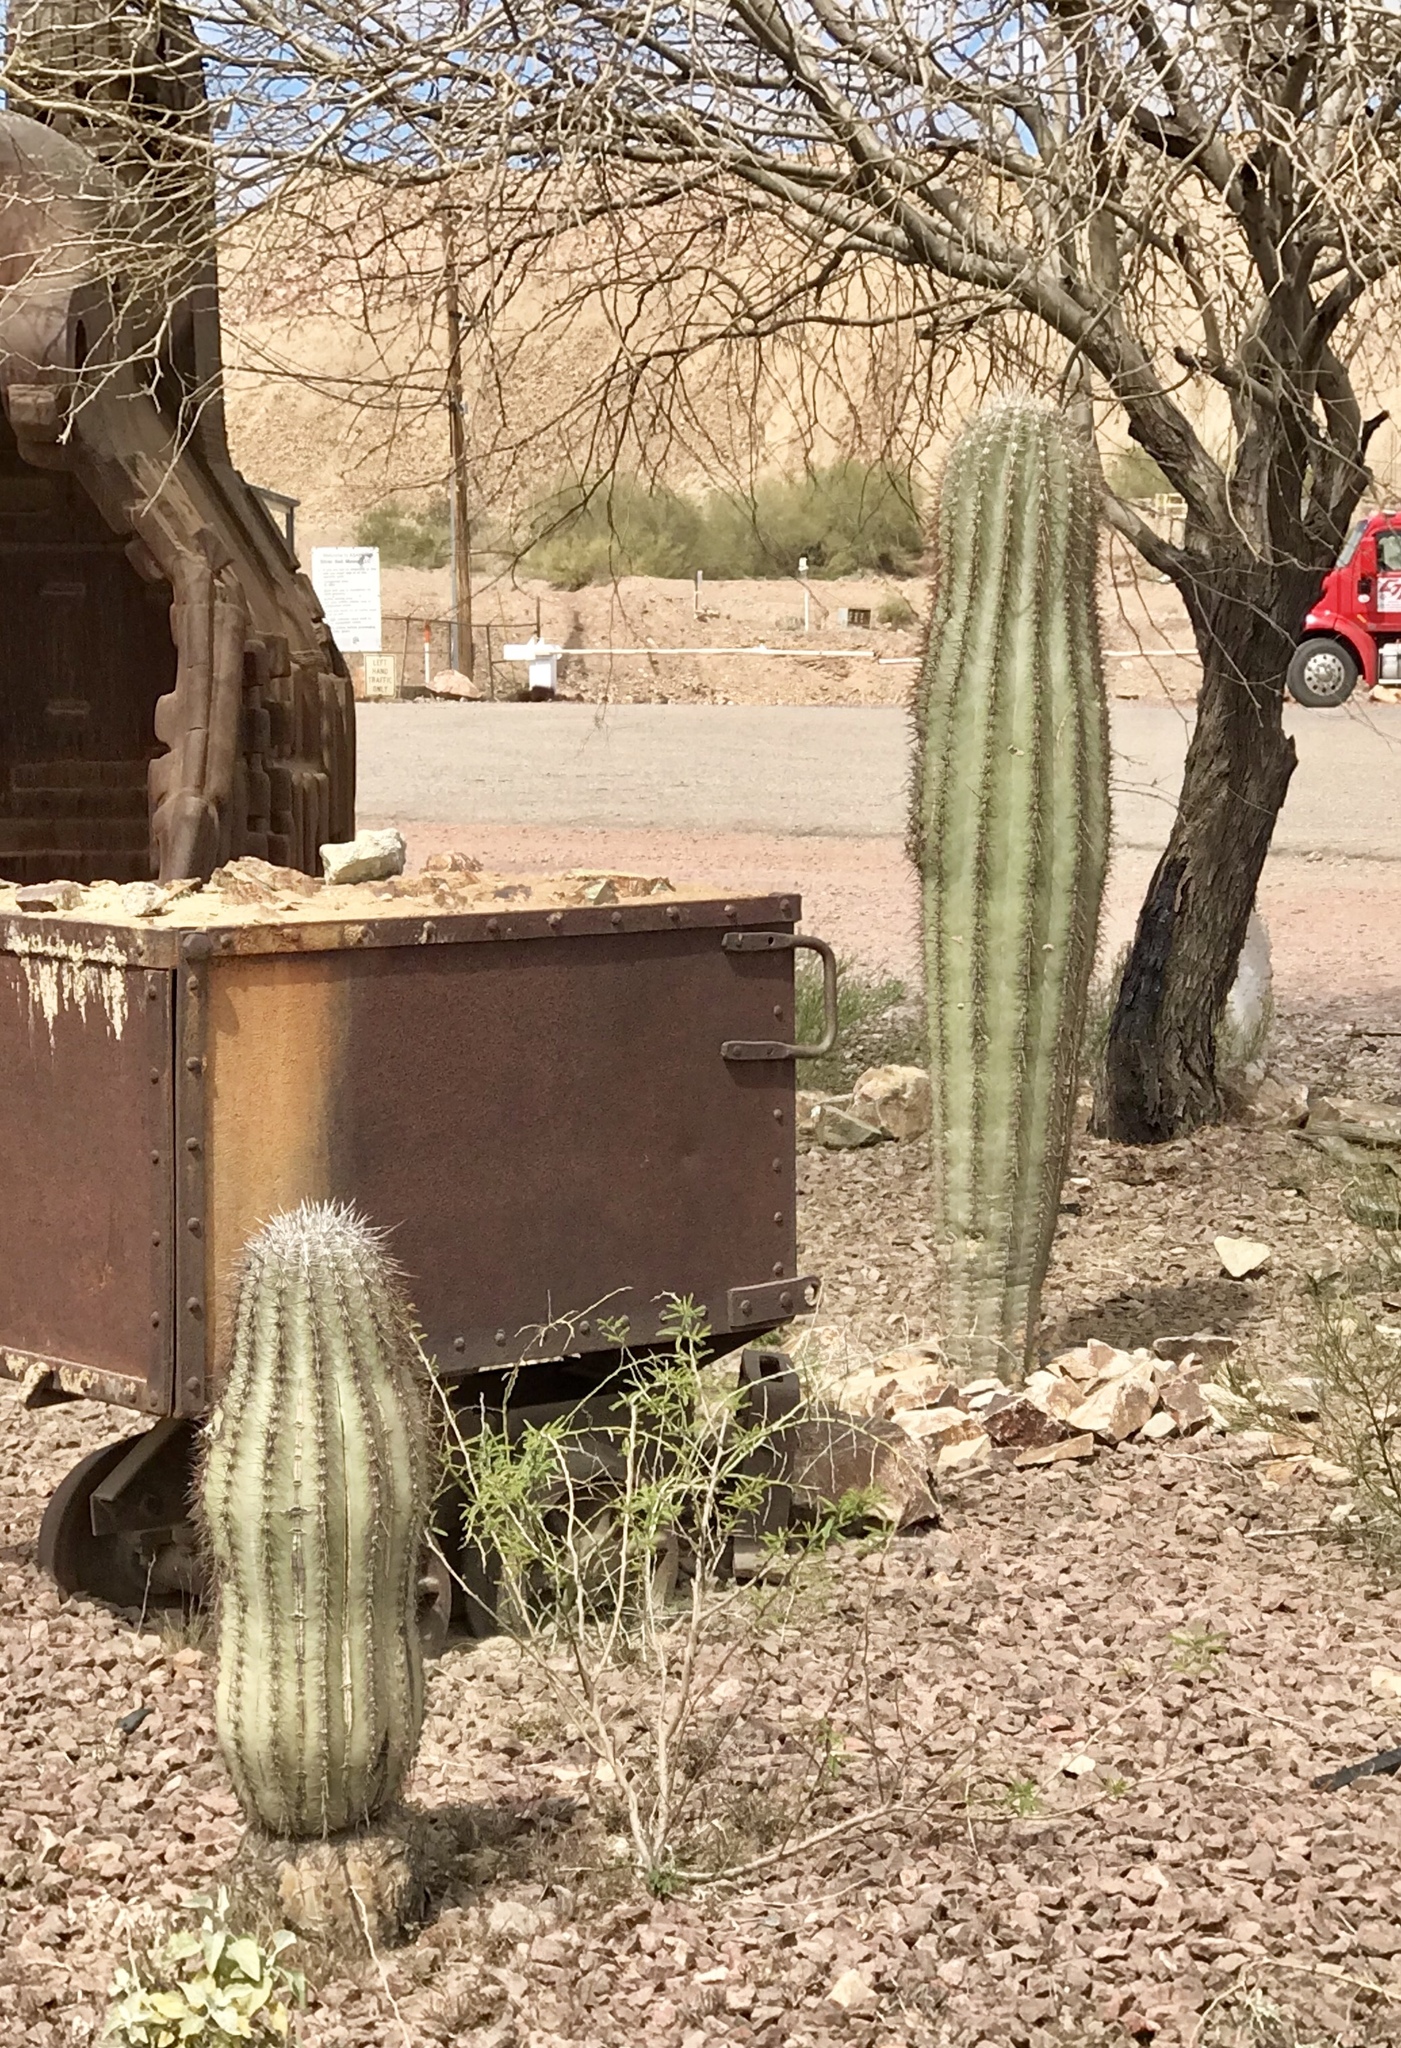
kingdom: Plantae
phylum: Tracheophyta
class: Magnoliopsida
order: Caryophyllales
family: Cactaceae
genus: Carnegiea
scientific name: Carnegiea gigantea
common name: Saguaro
